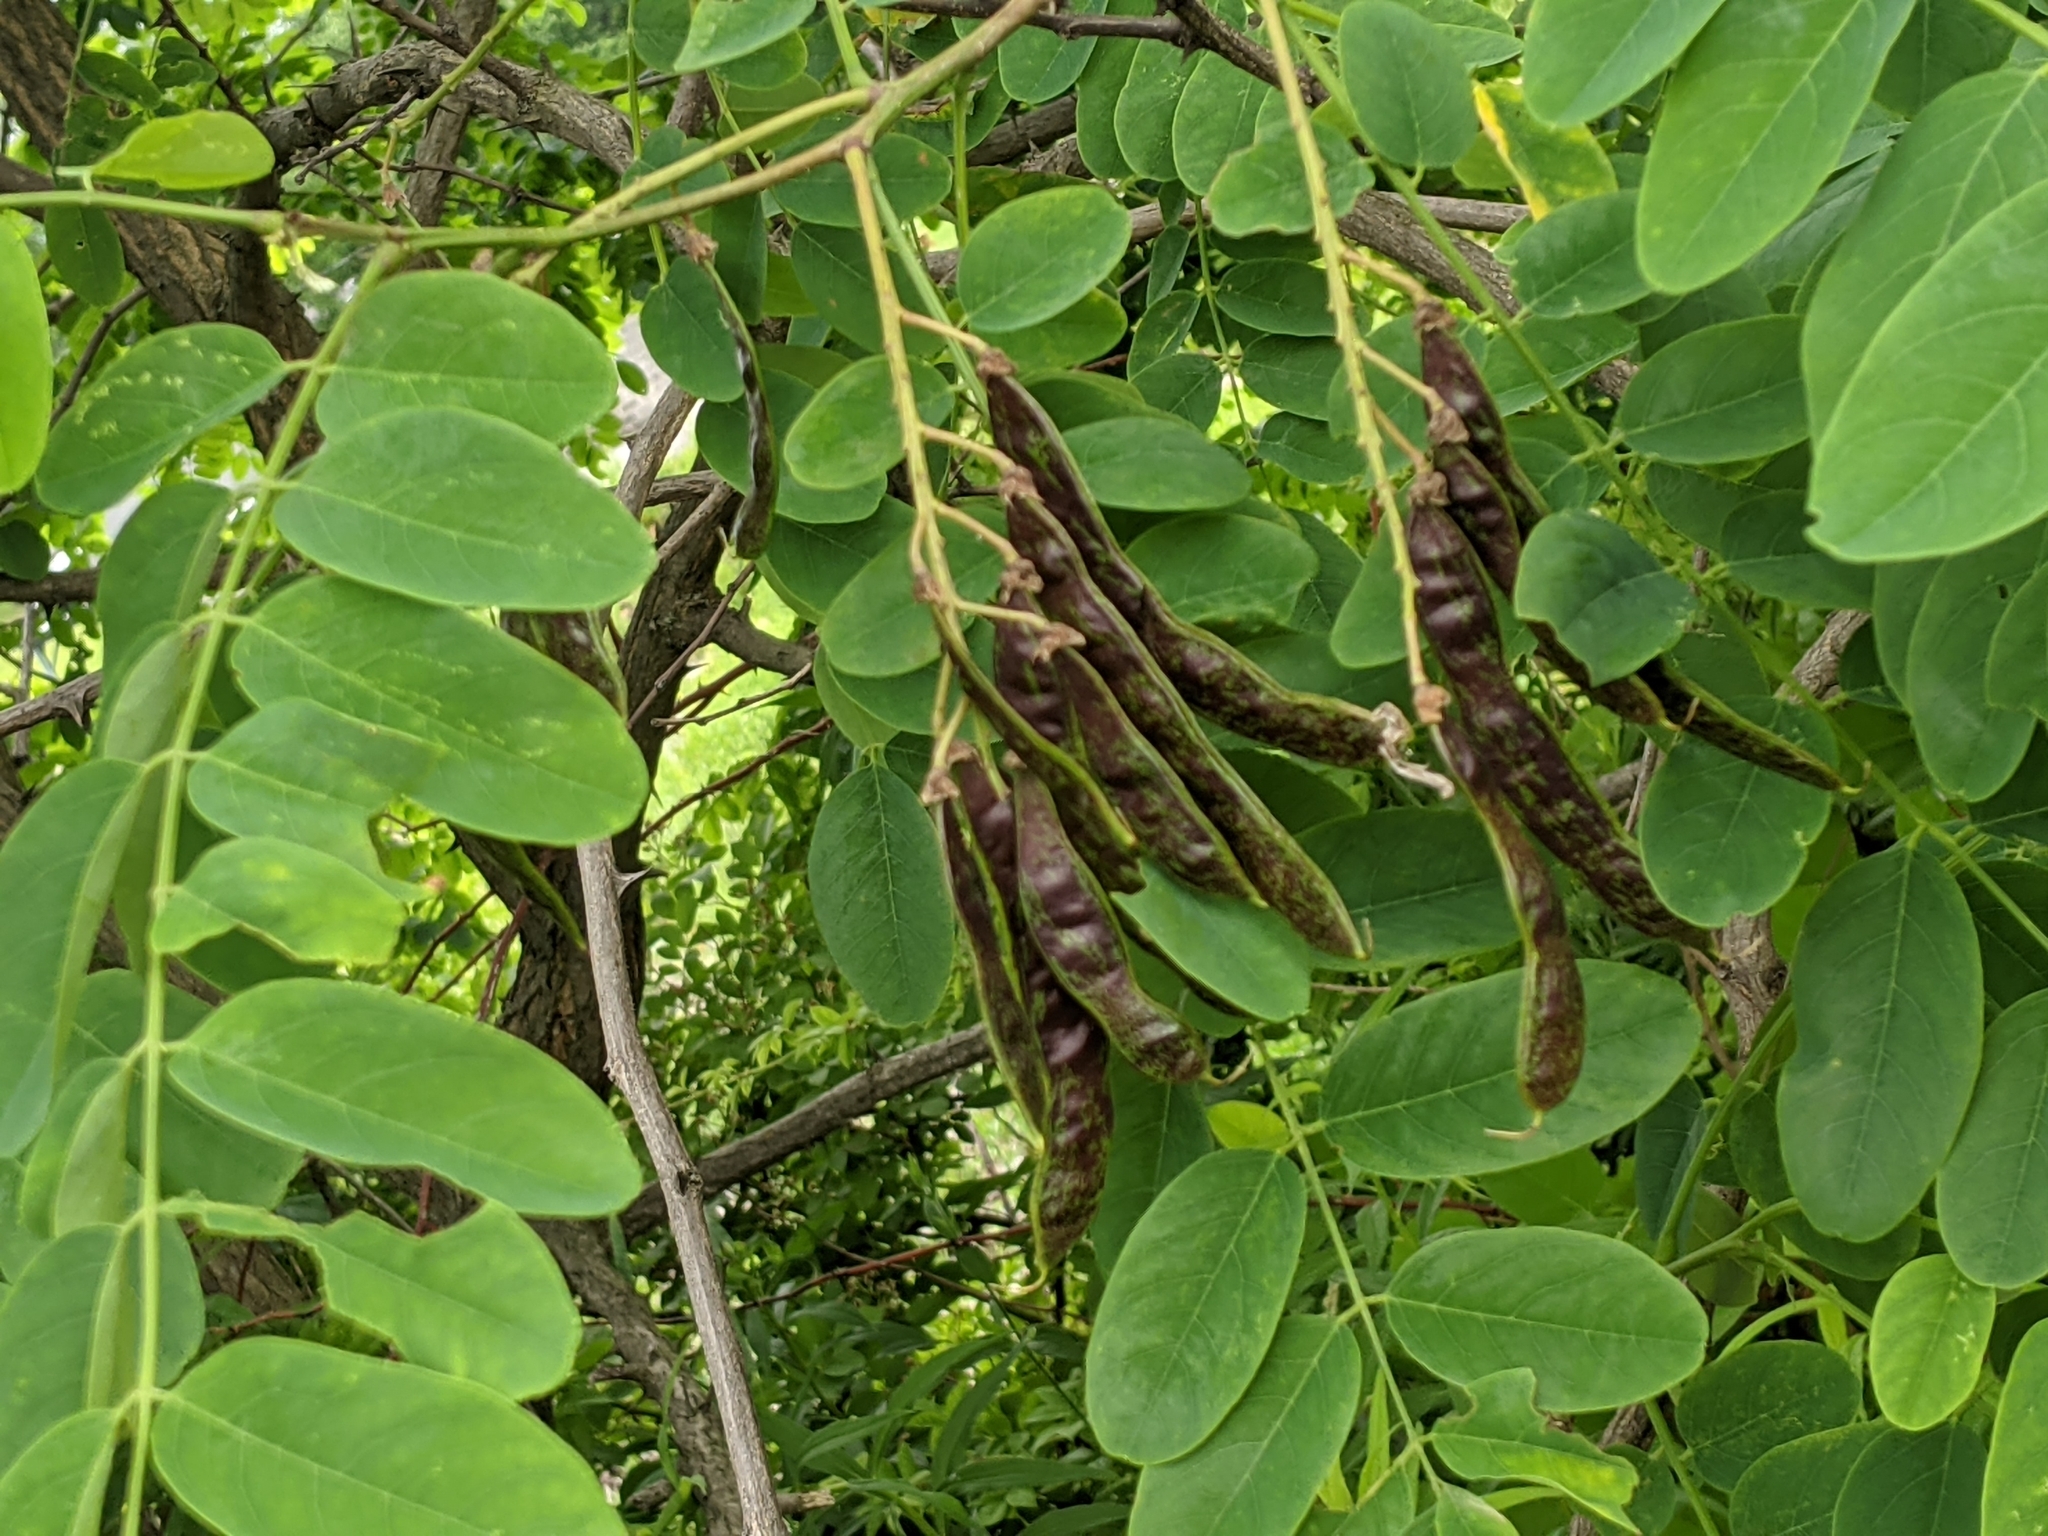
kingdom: Plantae
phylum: Tracheophyta
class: Magnoliopsida
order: Fabales
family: Fabaceae
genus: Robinia
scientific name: Robinia pseudoacacia
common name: Black locust
